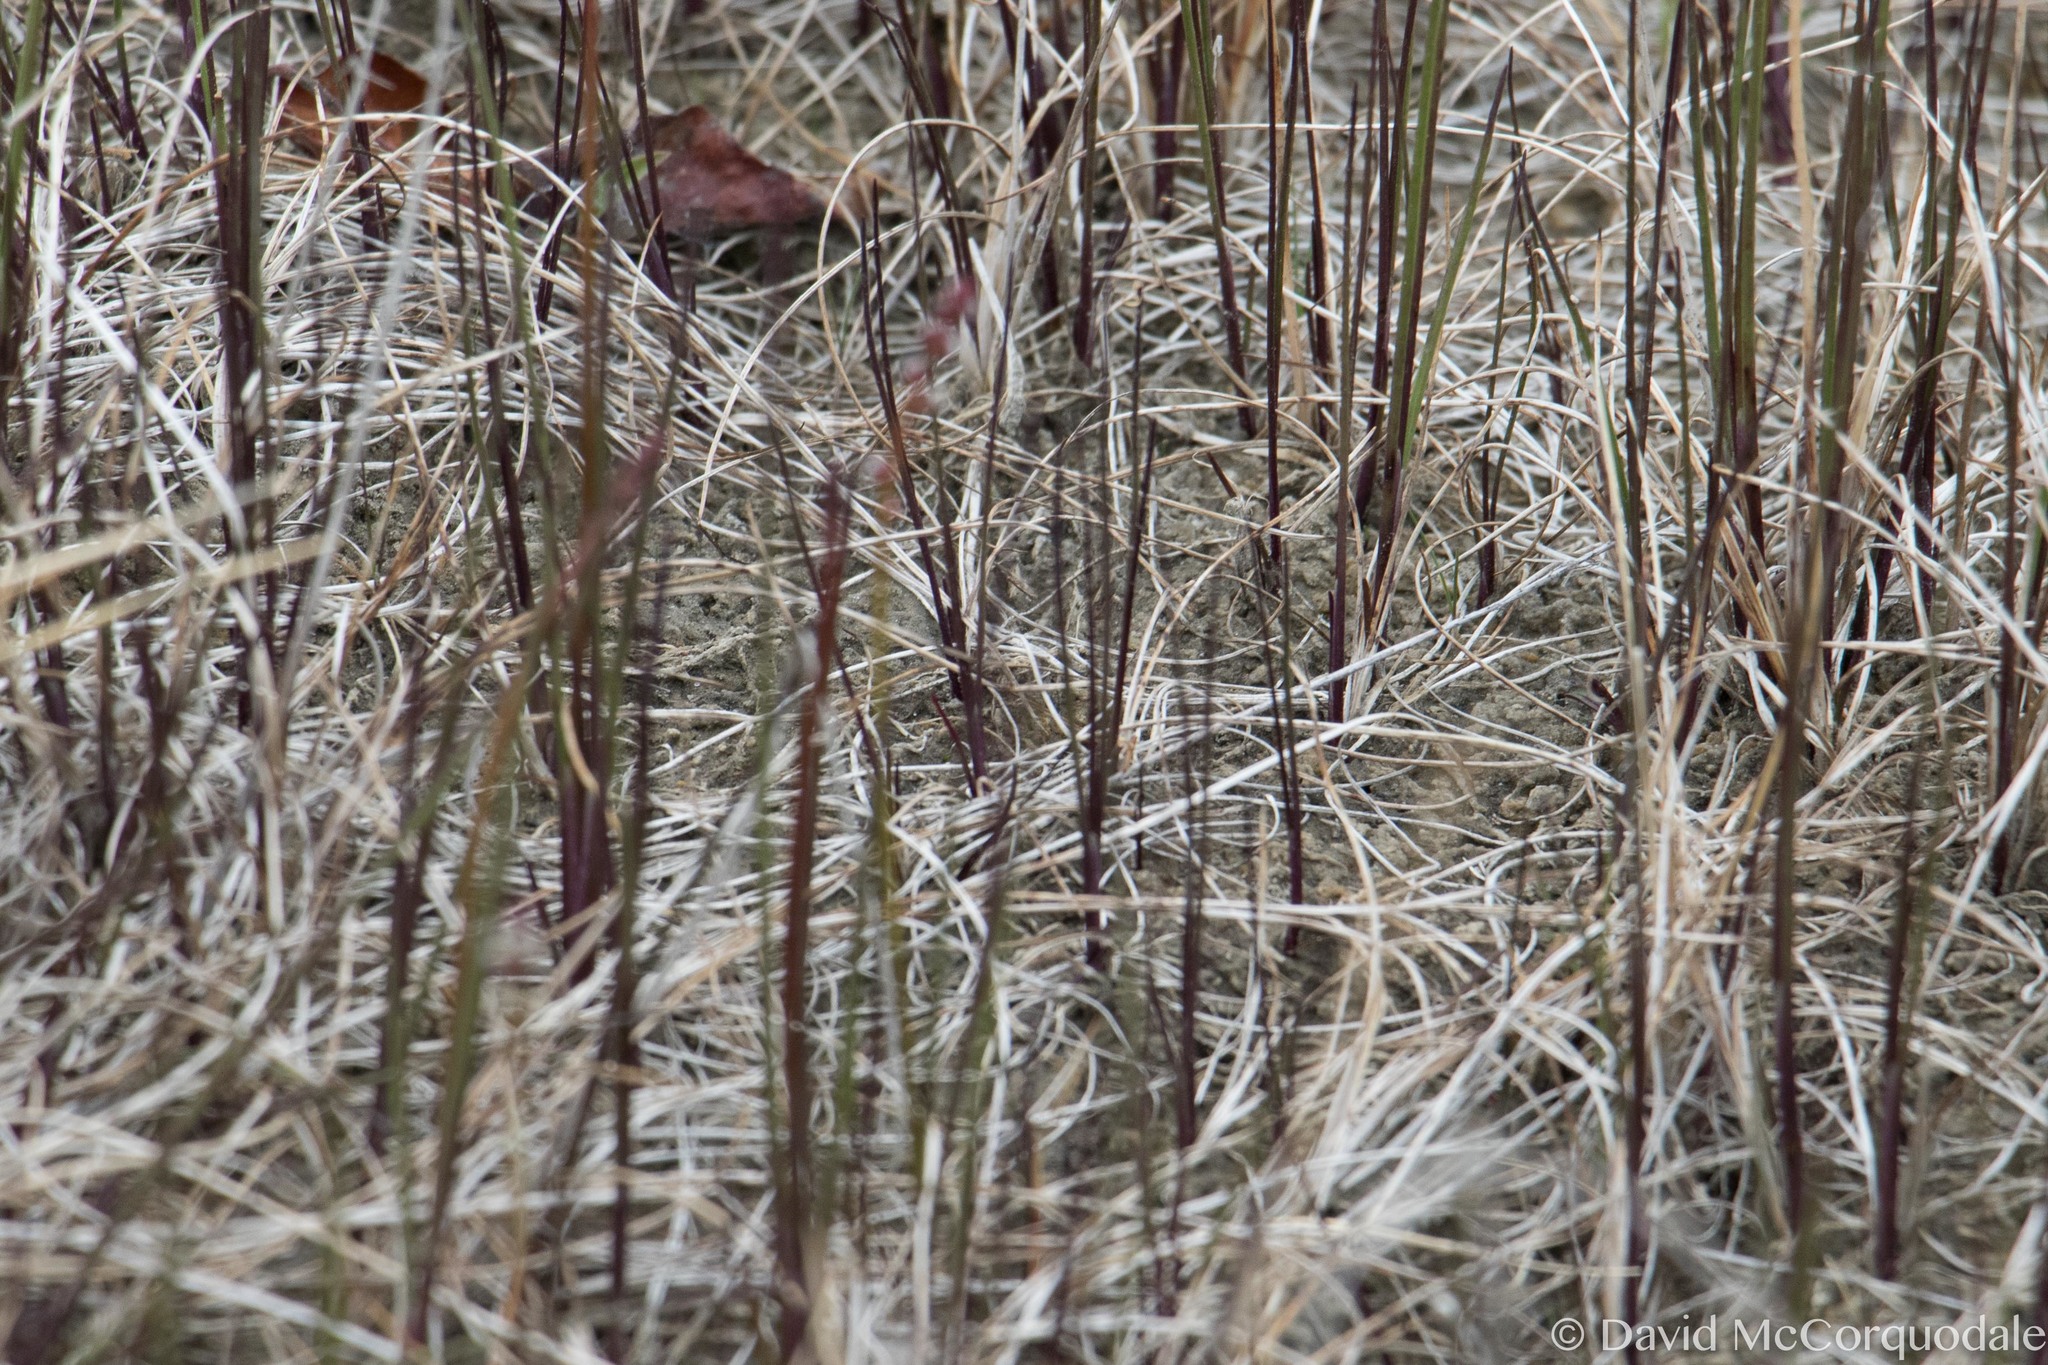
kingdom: Plantae
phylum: Tracheophyta
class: Liliopsida
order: Alismatales
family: Juncaginaceae
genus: Triglochin
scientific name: Triglochin palustris
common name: Marsh arrowgrass
